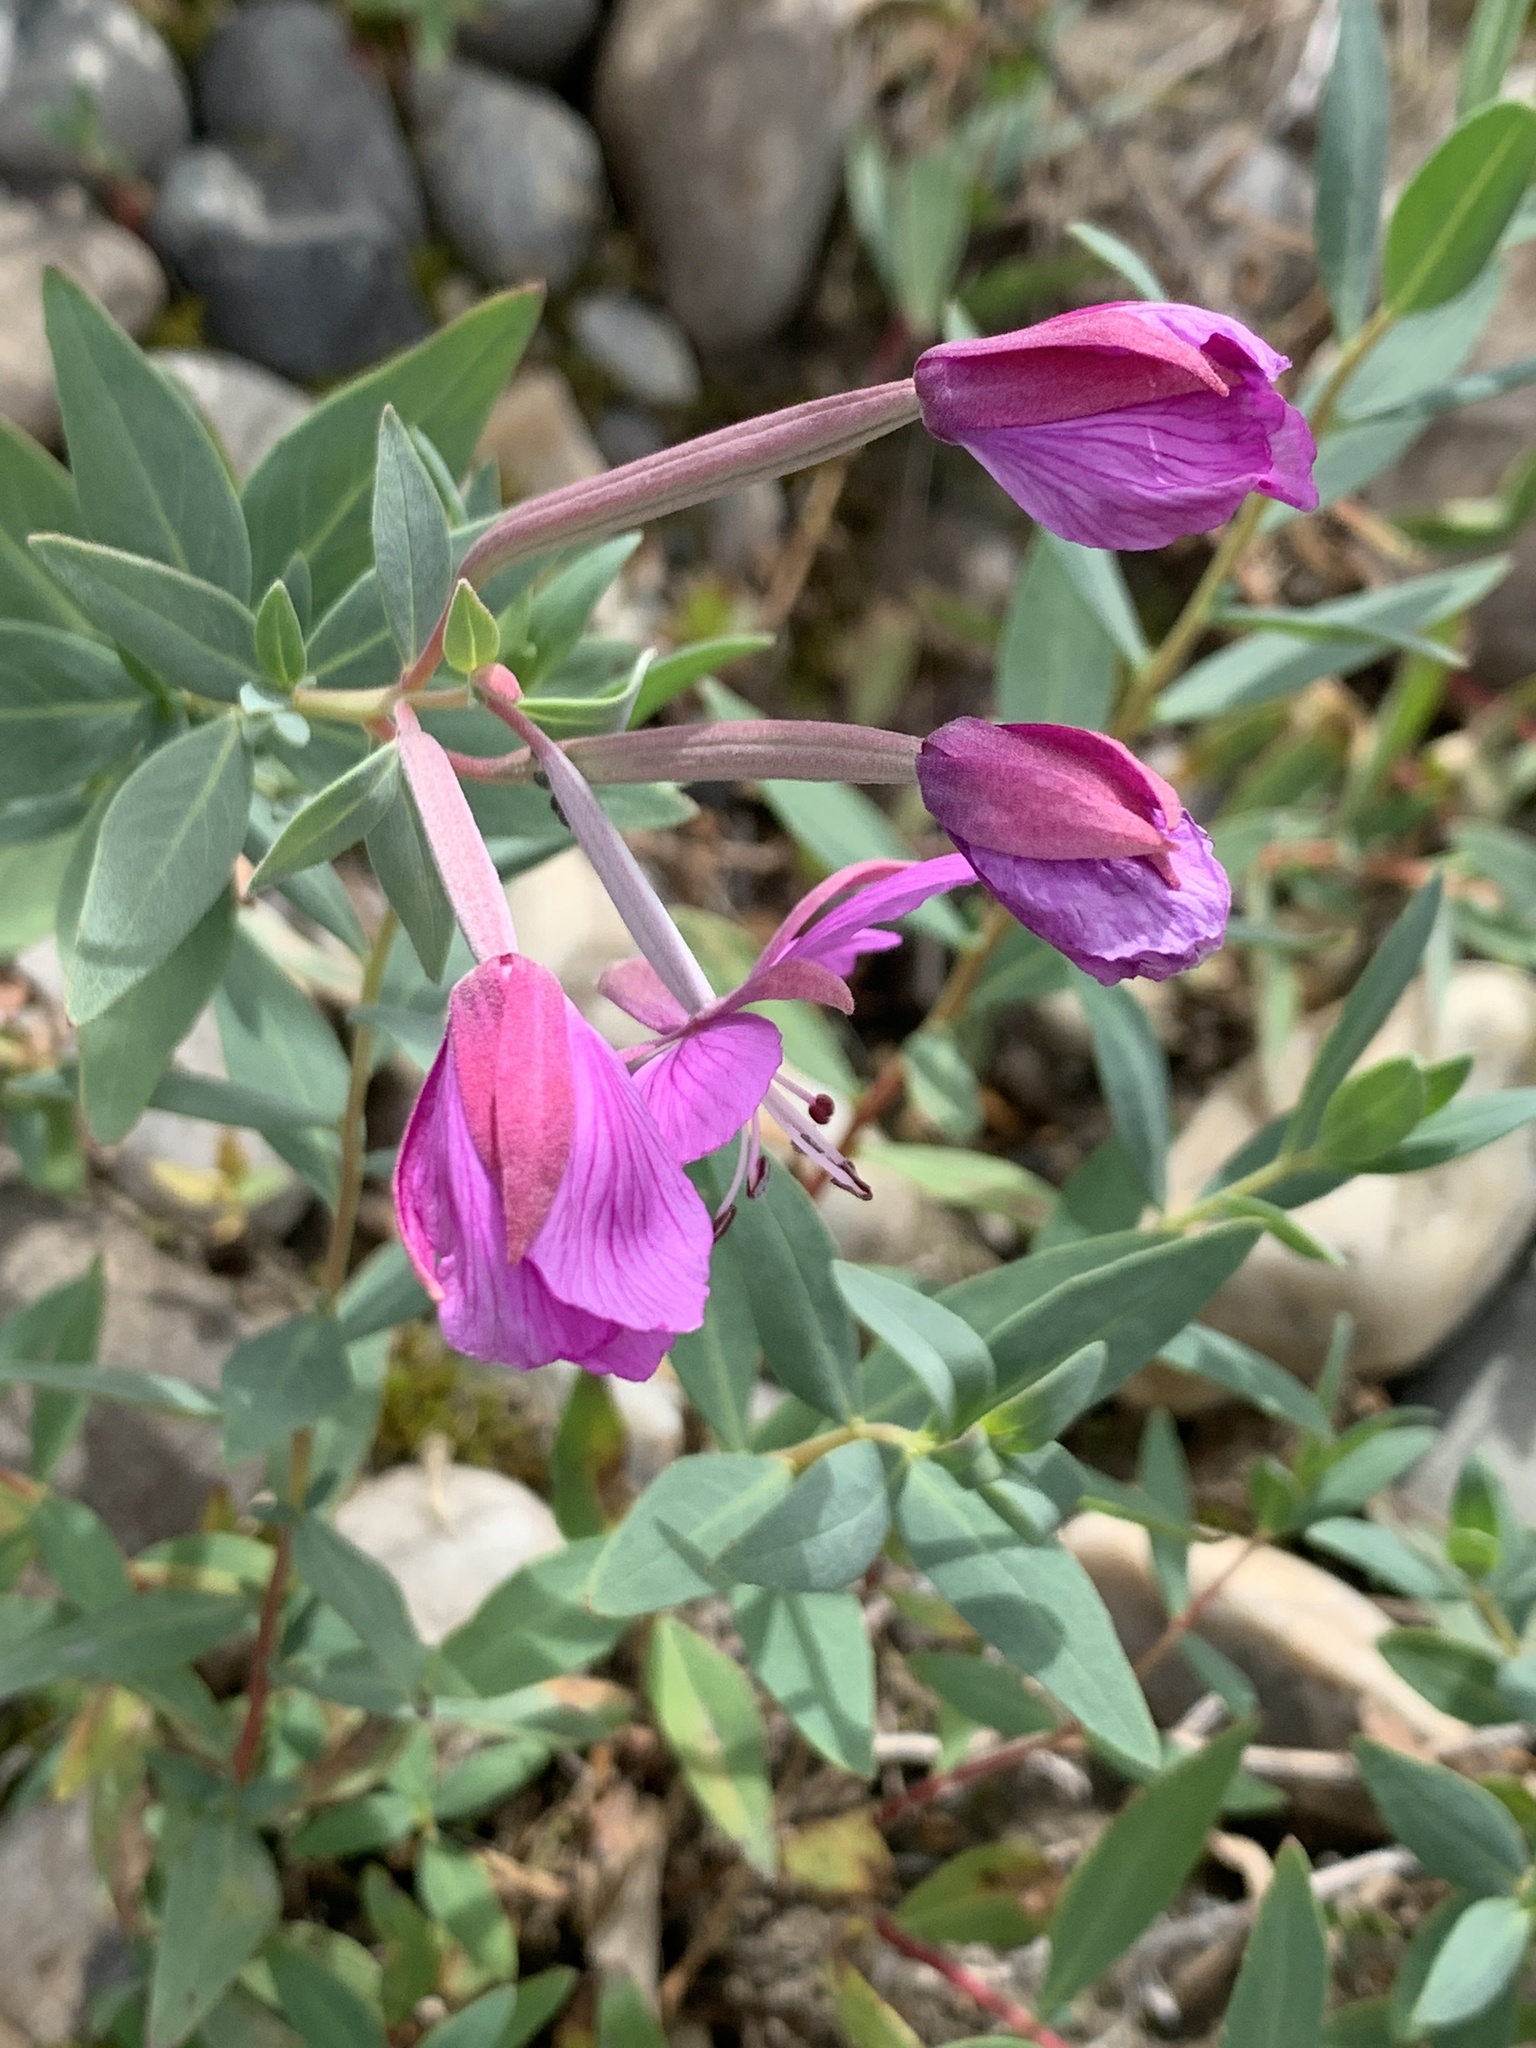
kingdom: Plantae
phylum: Tracheophyta
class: Magnoliopsida
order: Myrtales
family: Onagraceae
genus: Chamaenerion
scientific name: Chamaenerion latifolium
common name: Dwarf fireweed
